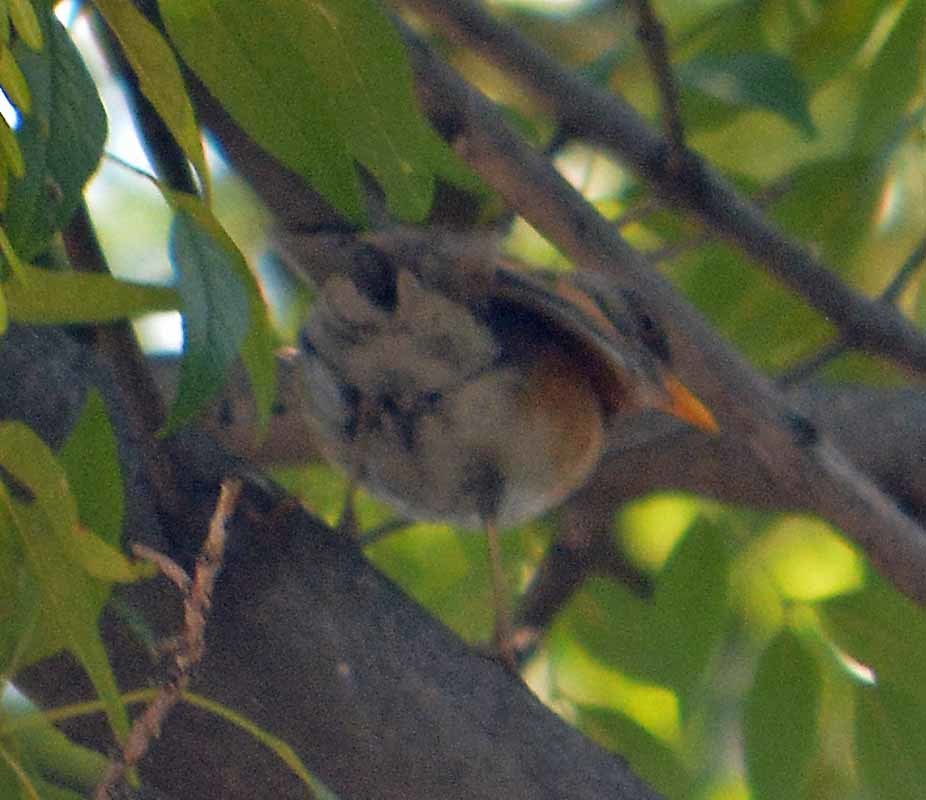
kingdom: Animalia
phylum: Chordata
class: Aves
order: Passeriformes
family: Turdidae
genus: Turdus
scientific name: Turdus rufopalliatus
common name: Rufous-backed robin
